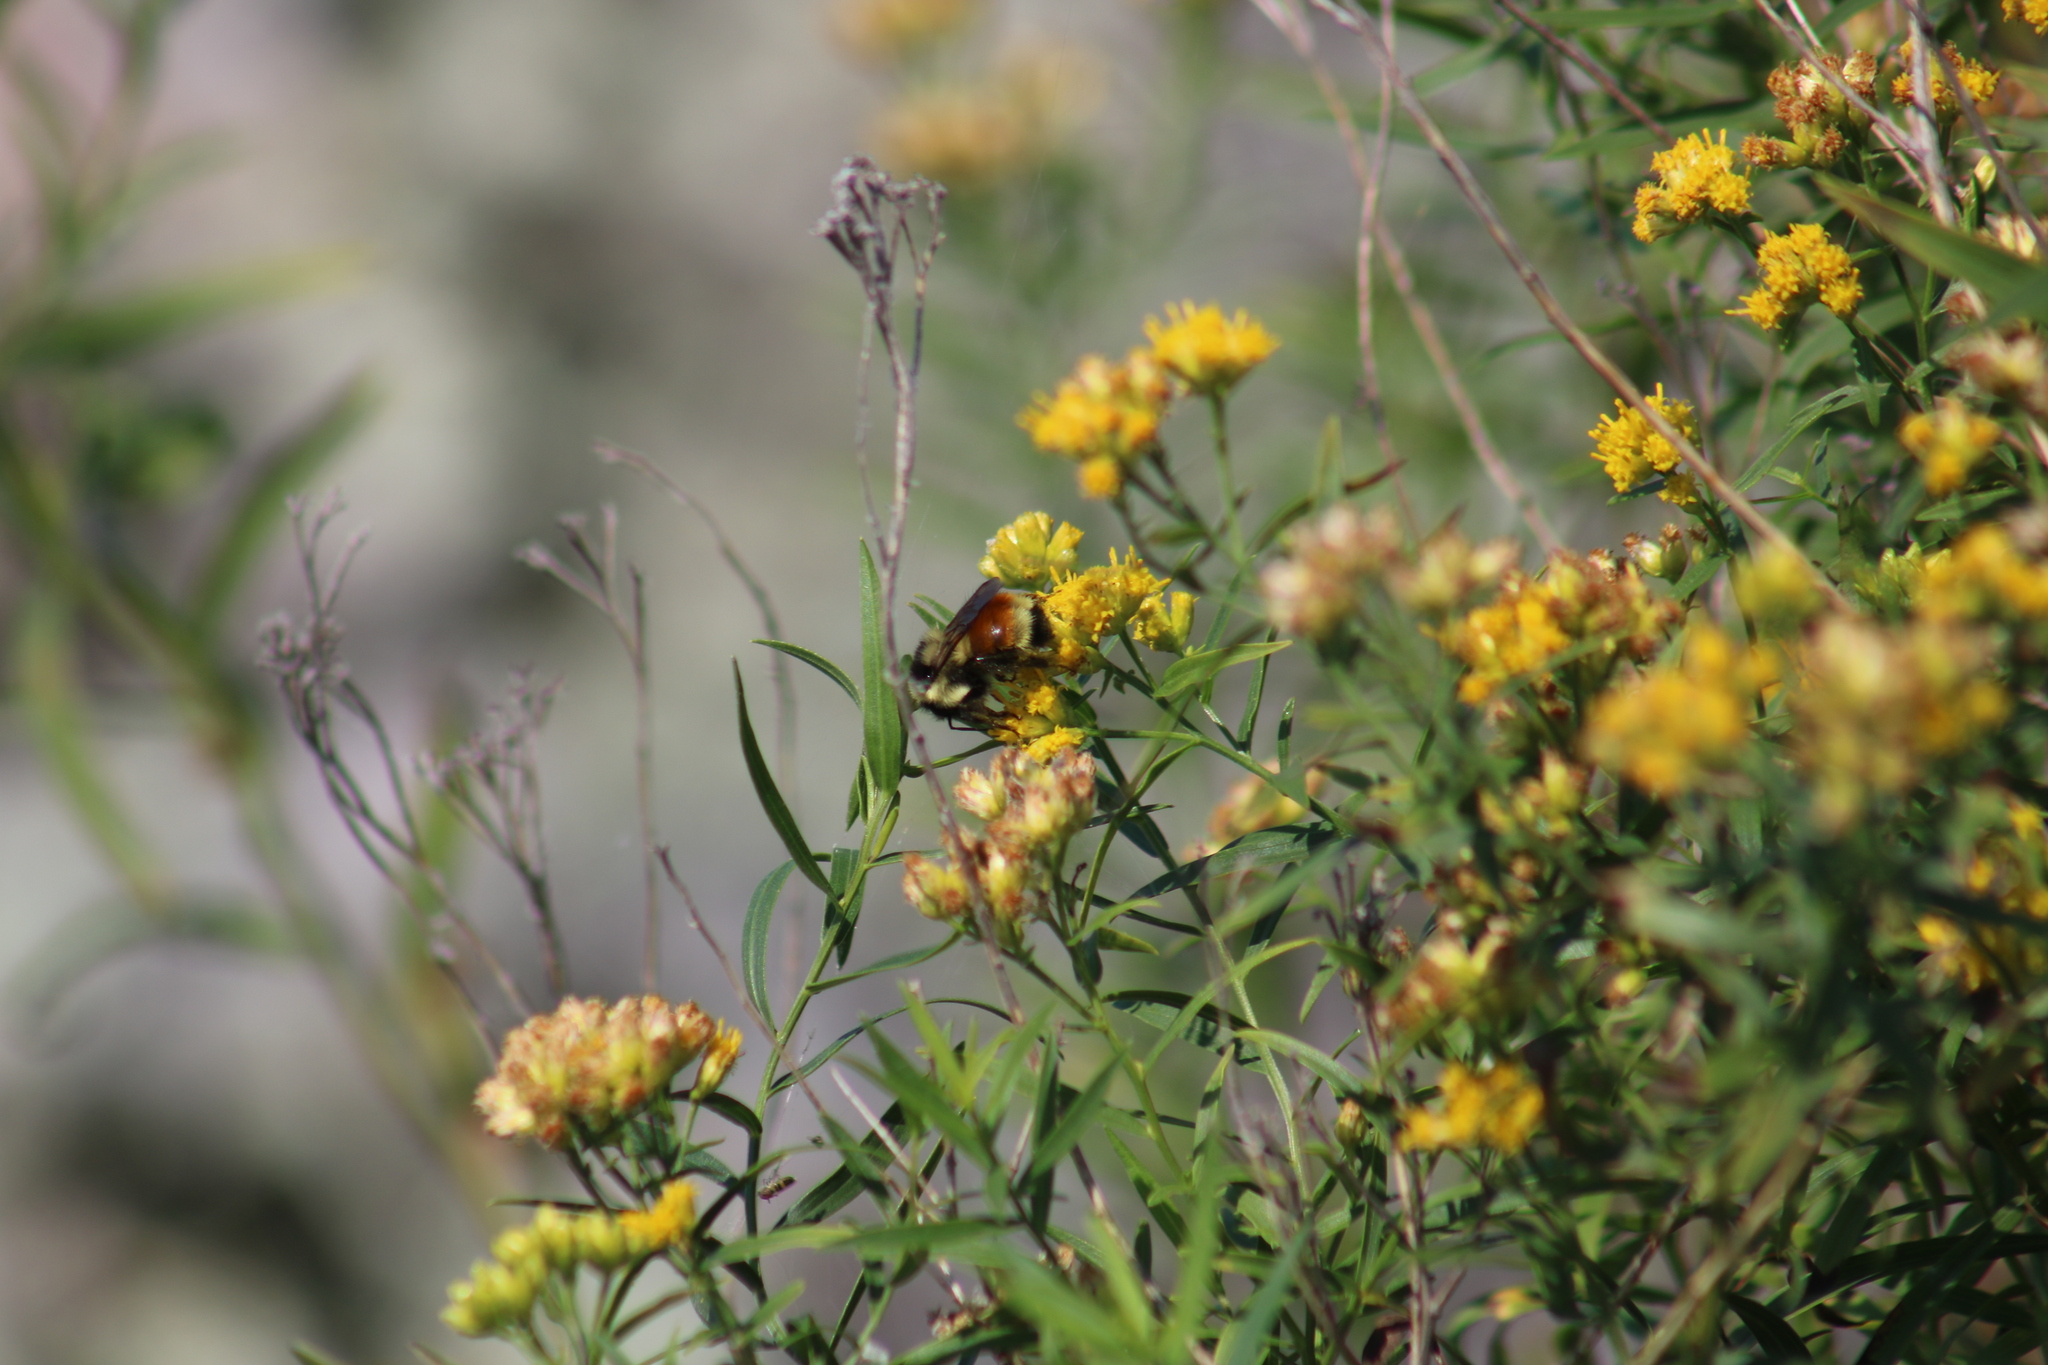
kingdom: Animalia
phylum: Arthropoda
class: Insecta
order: Hymenoptera
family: Apidae
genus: Bombus
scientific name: Bombus ternarius
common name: Tri-colored bumble bee
